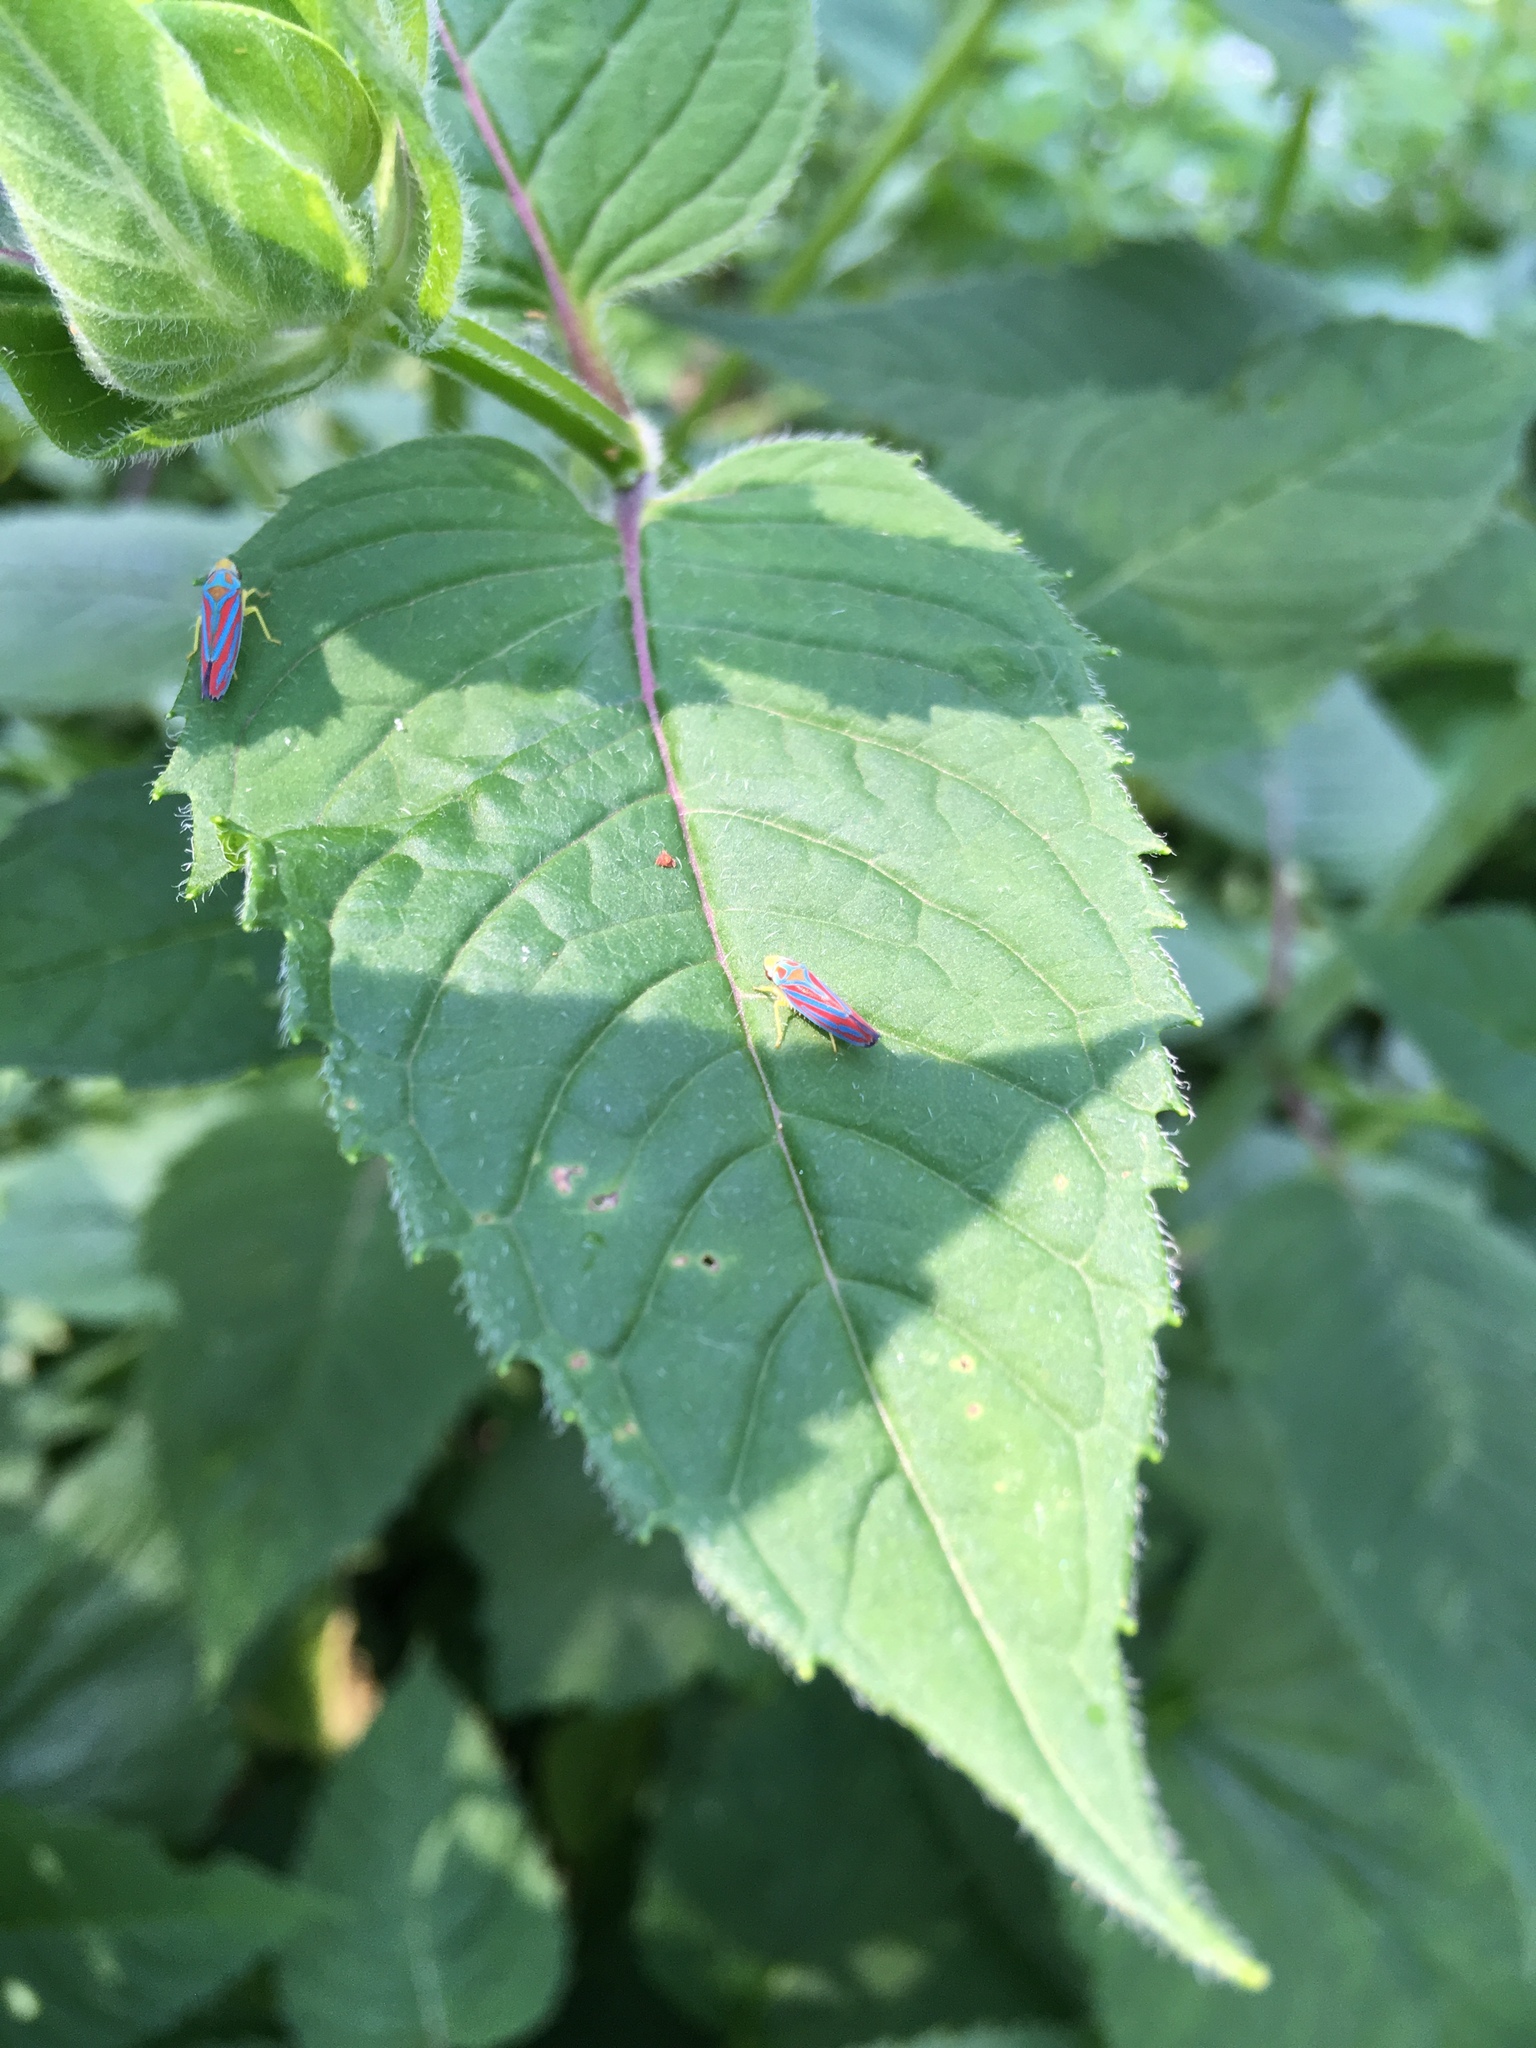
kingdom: Animalia
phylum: Arthropoda
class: Insecta
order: Hemiptera
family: Cicadellidae
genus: Graphocephala
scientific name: Graphocephala coccinea
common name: Candy-striped leafhopper
